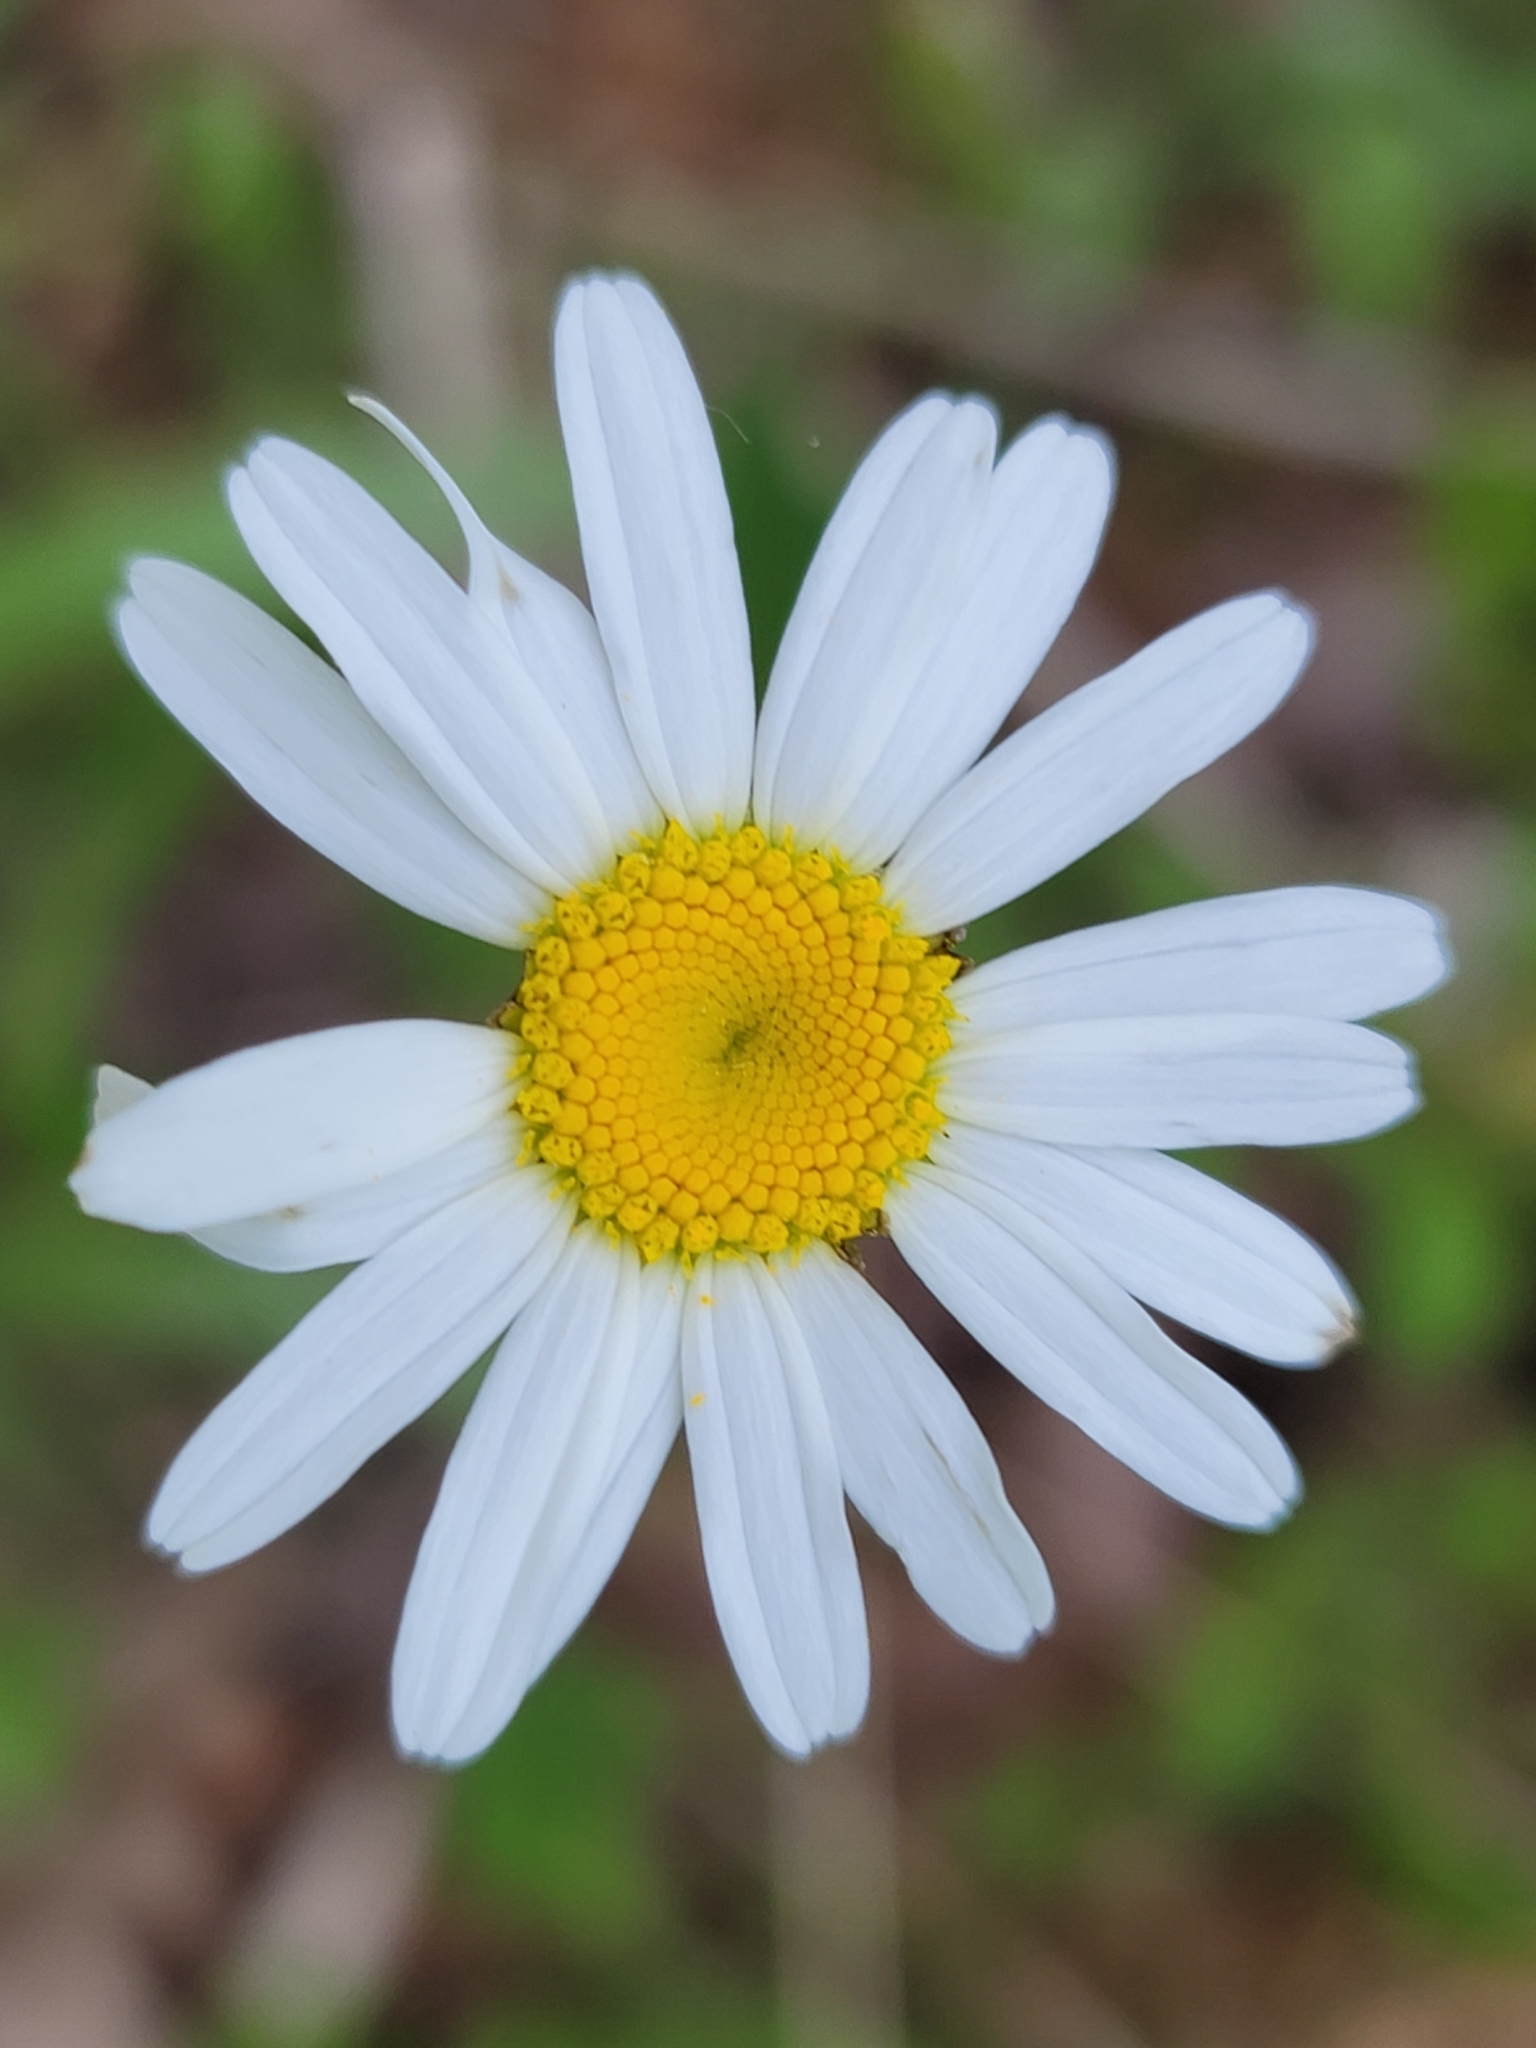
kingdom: Plantae
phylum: Tracheophyta
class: Magnoliopsida
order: Asterales
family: Asteraceae
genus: Leucanthemum
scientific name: Leucanthemum vulgare
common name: Oxeye daisy
